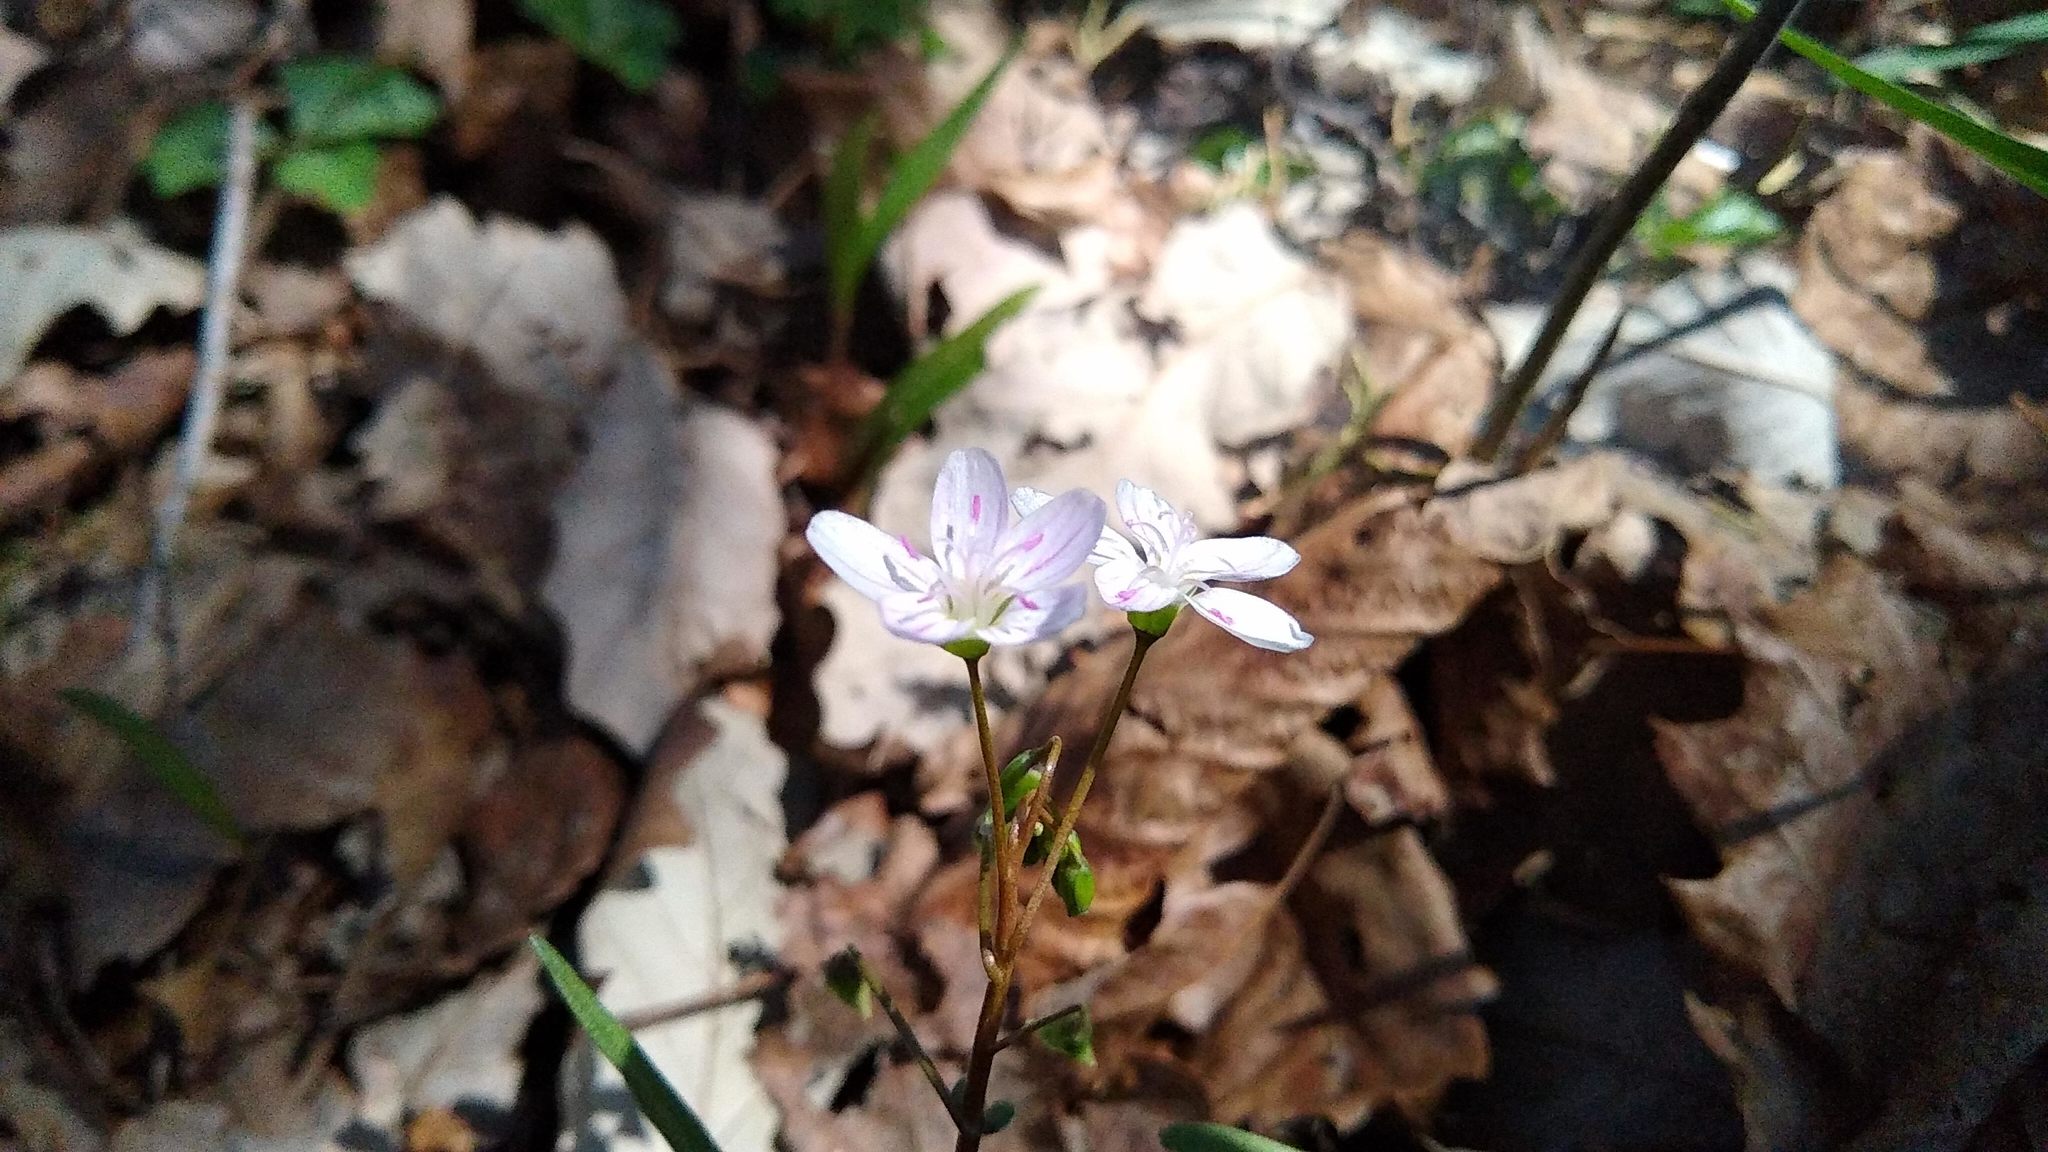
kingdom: Plantae
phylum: Tracheophyta
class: Magnoliopsida
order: Caryophyllales
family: Montiaceae
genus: Claytonia
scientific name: Claytonia virginica
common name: Virginia springbeauty
